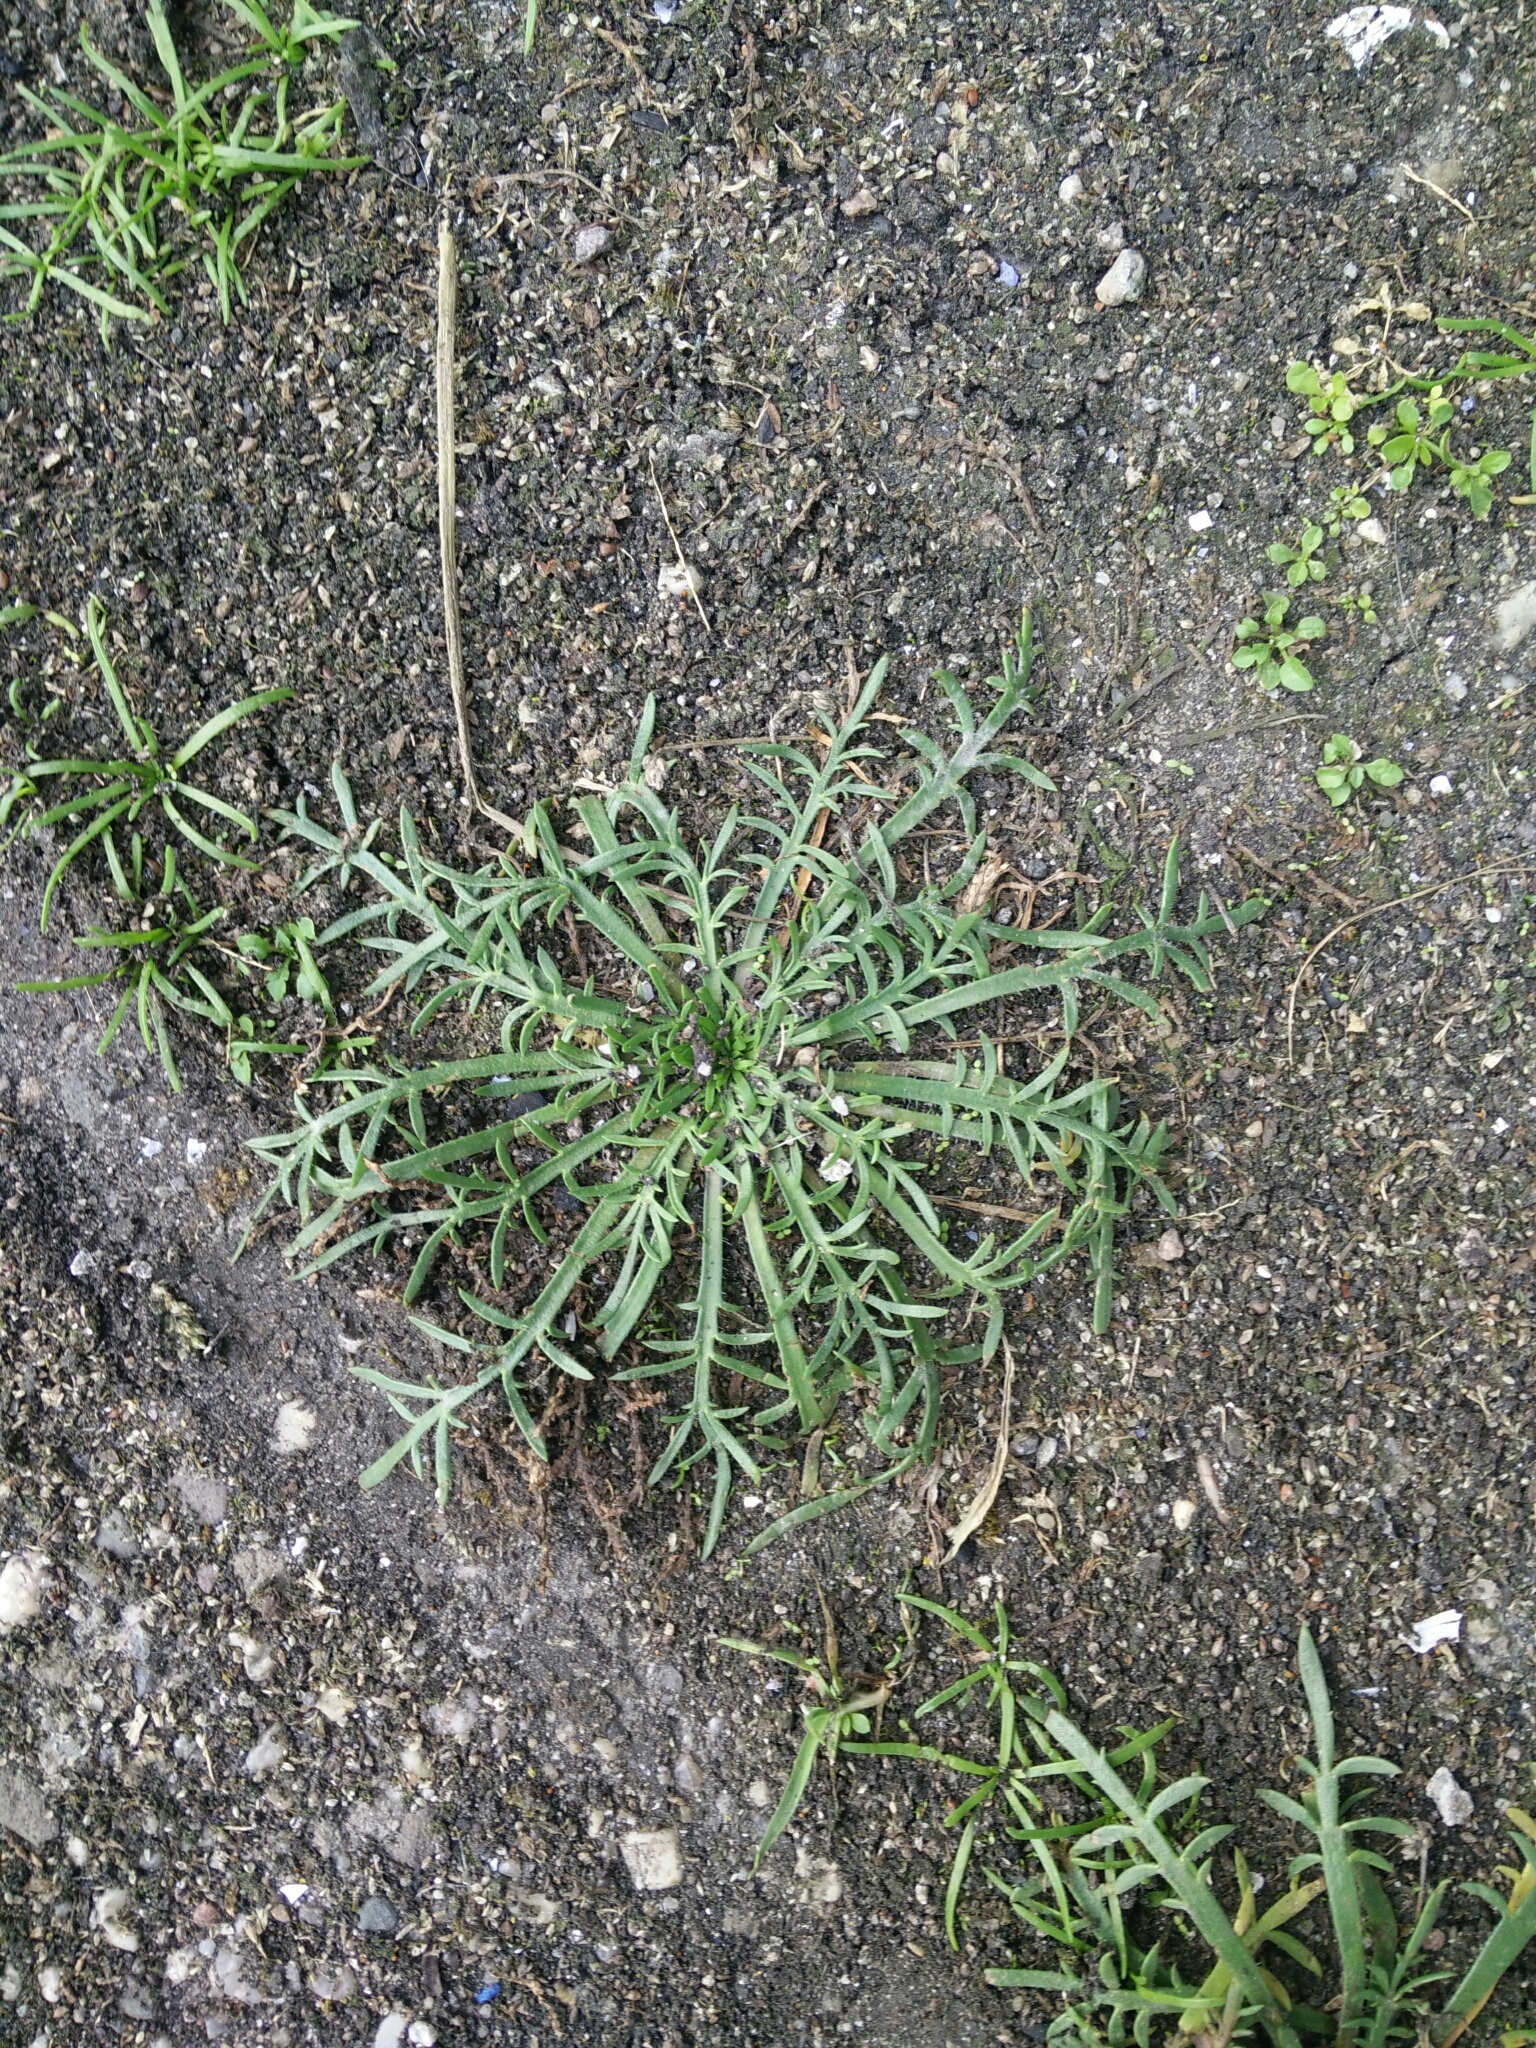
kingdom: Plantae
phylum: Tracheophyta
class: Magnoliopsida
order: Lamiales
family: Plantaginaceae
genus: Plantago
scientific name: Plantago coronopus
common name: Buck's-horn plantain
